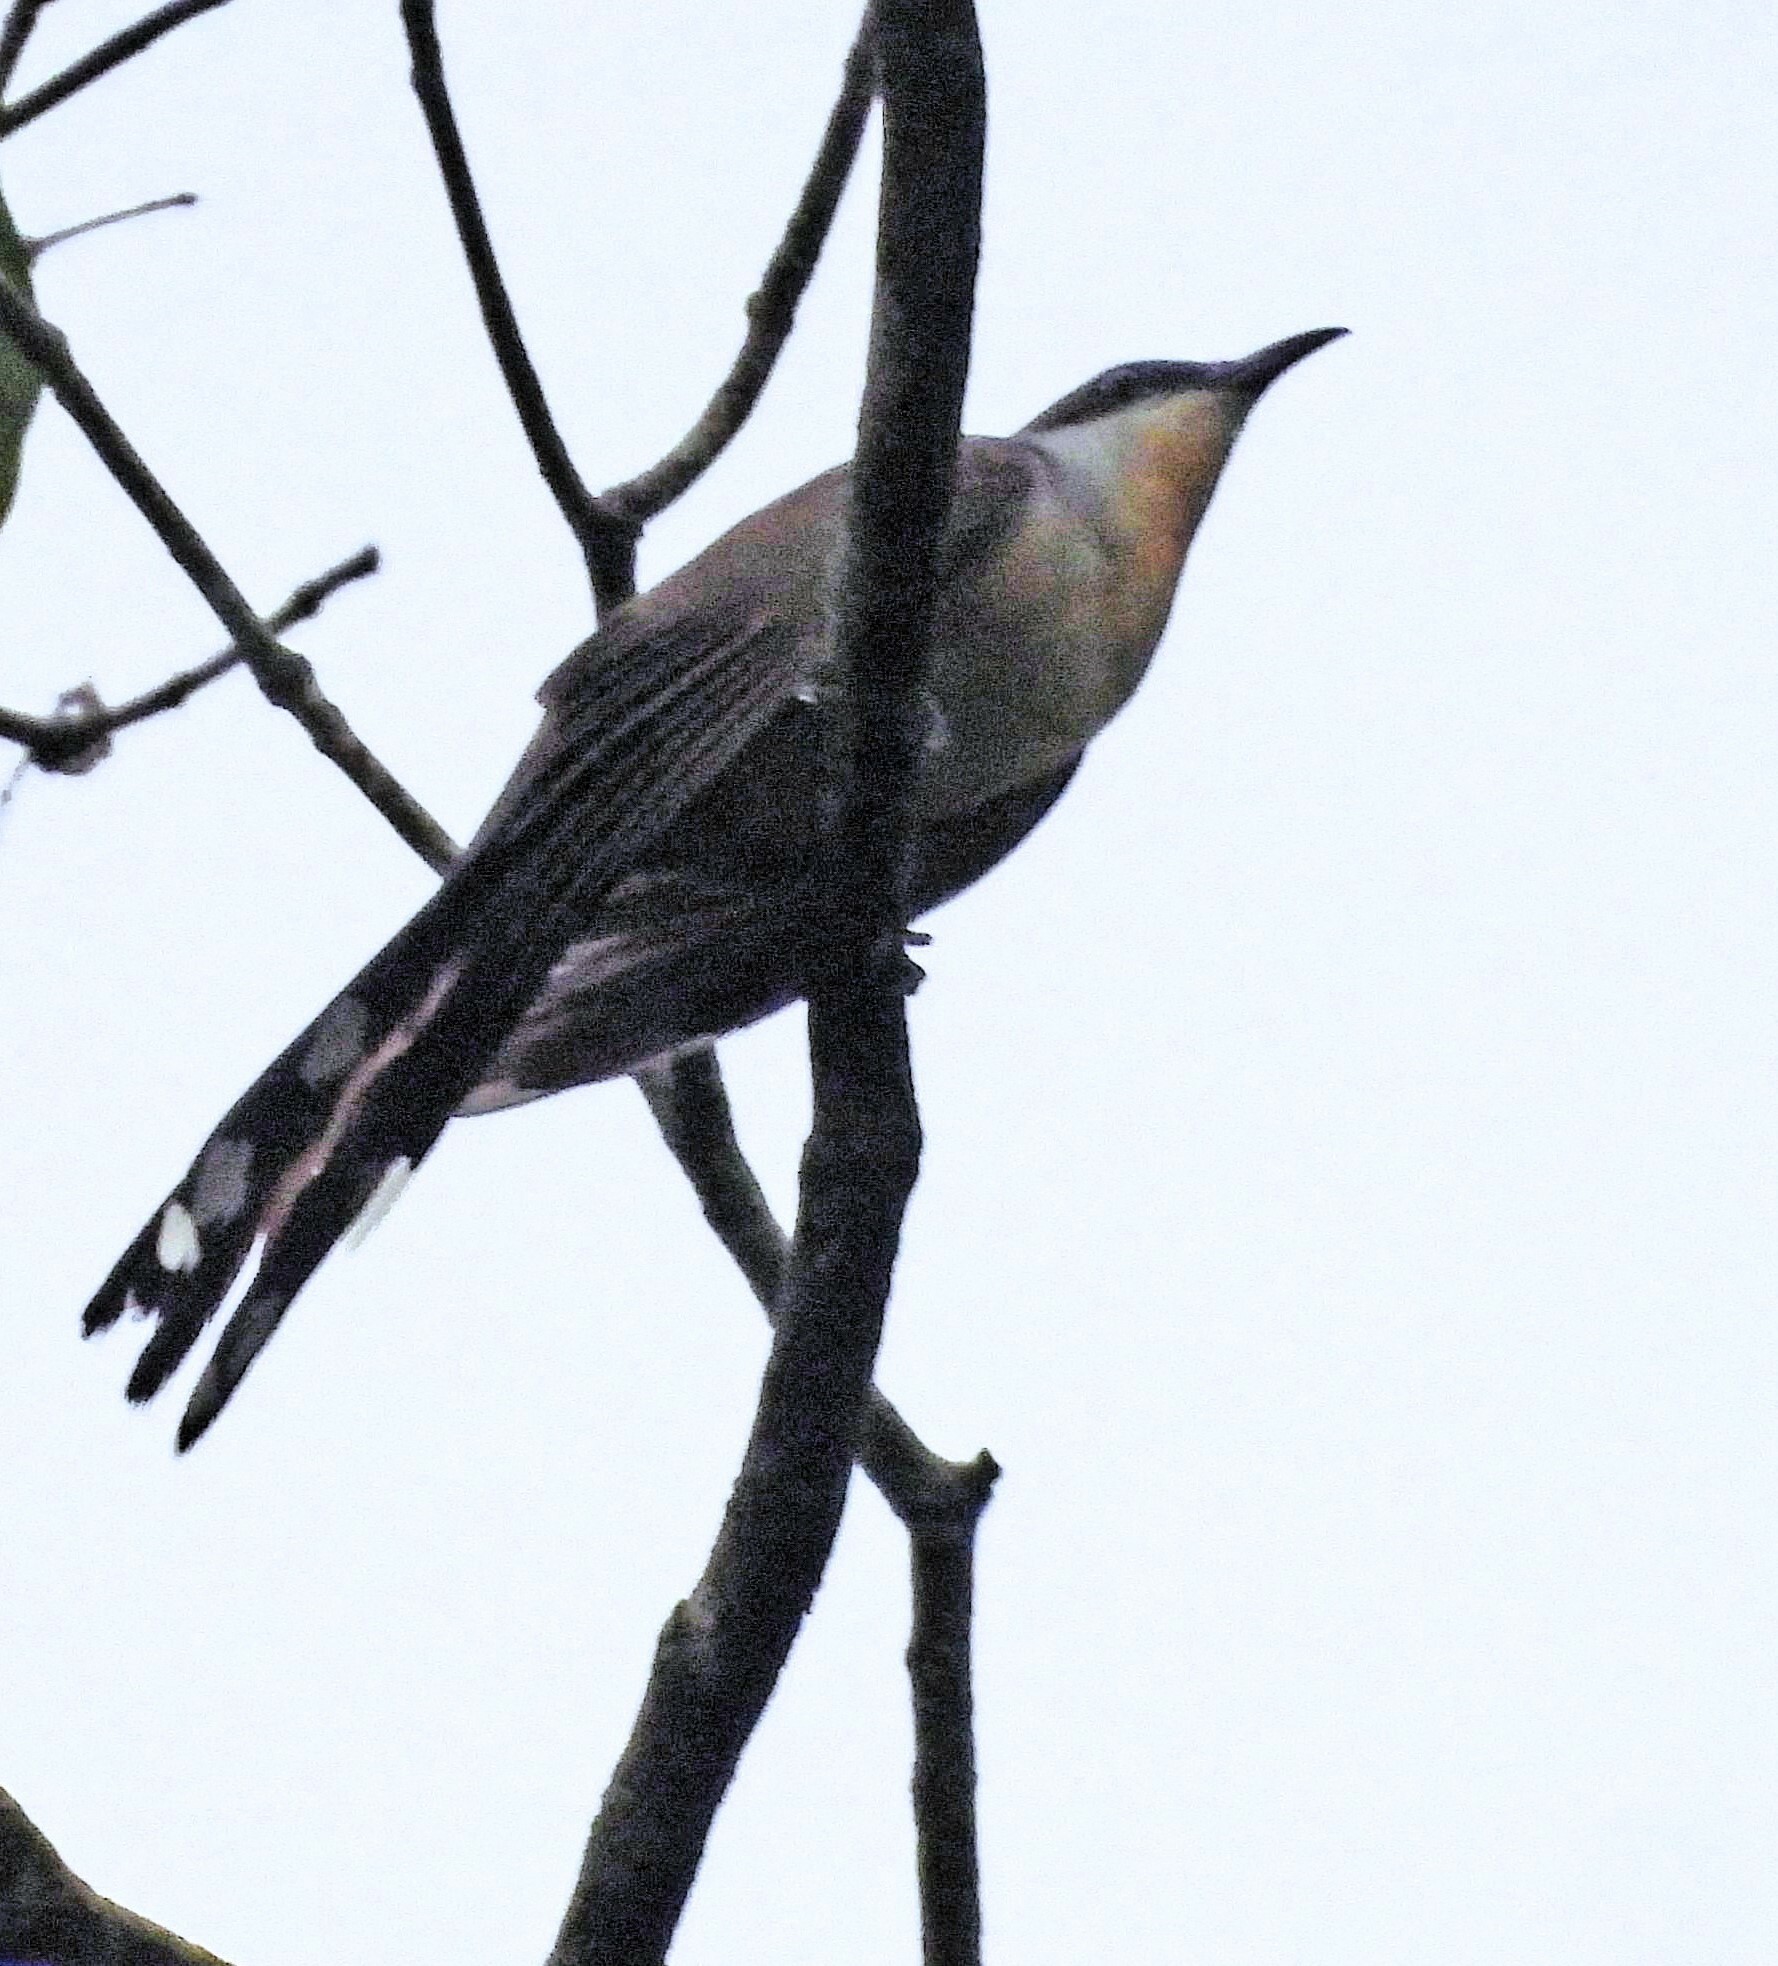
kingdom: Animalia
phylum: Chordata
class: Aves
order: Cuculiformes
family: Cuculidae
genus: Coccyzus
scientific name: Coccyzus melacoryphus
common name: Dark-billed cuckoo
